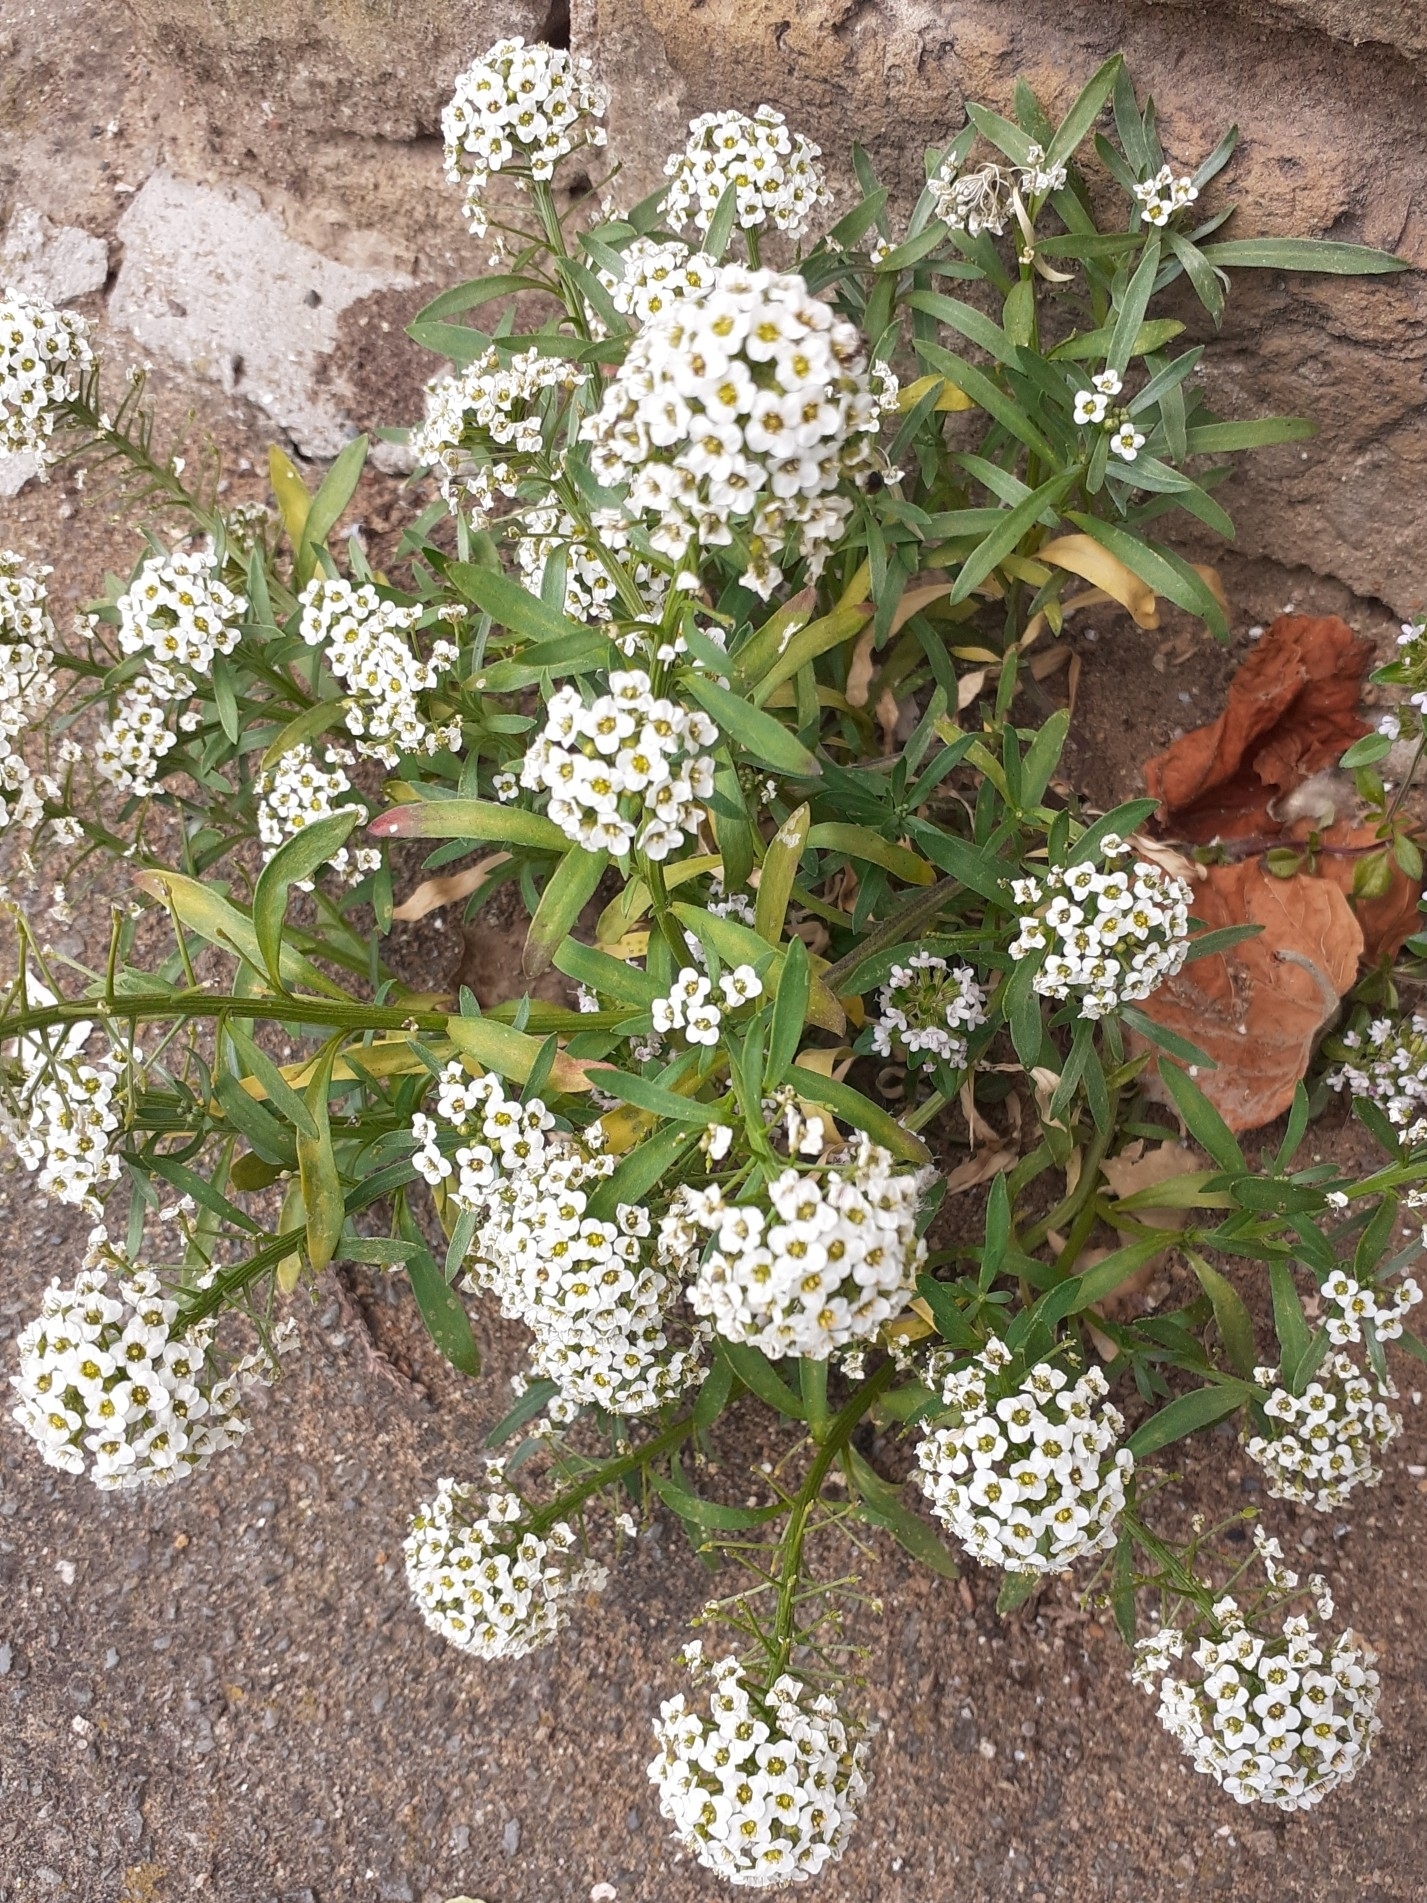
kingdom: Plantae
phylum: Tracheophyta
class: Magnoliopsida
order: Brassicales
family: Brassicaceae
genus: Lobularia
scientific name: Lobularia maritima
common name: Sweet alison
